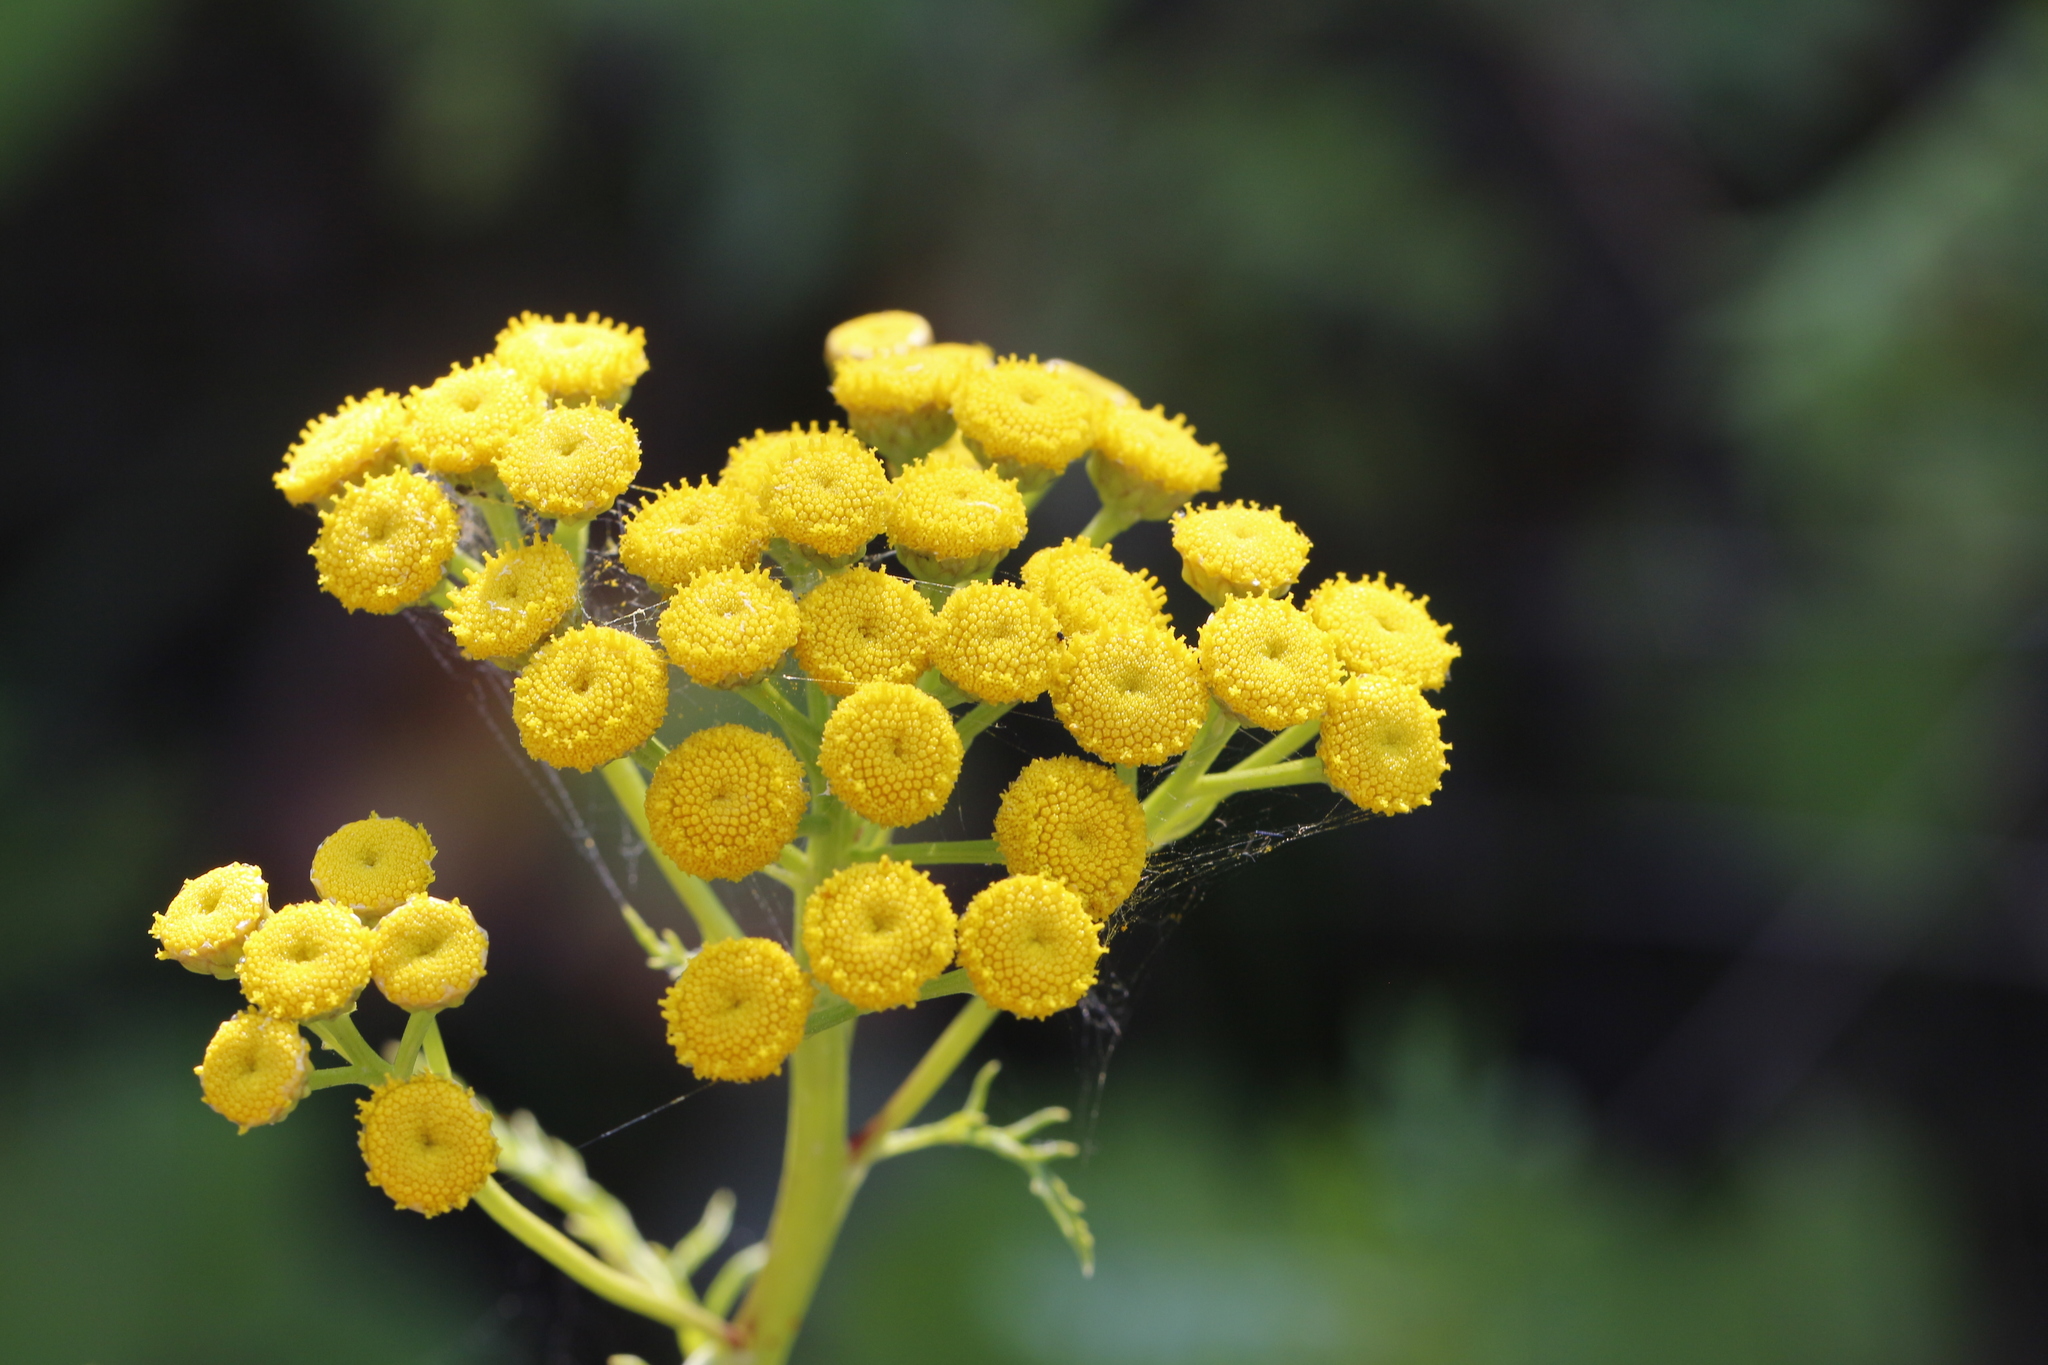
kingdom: Plantae
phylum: Tracheophyta
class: Magnoliopsida
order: Asterales
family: Asteraceae
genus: Tanacetum
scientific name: Tanacetum vulgare
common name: Common tansy
